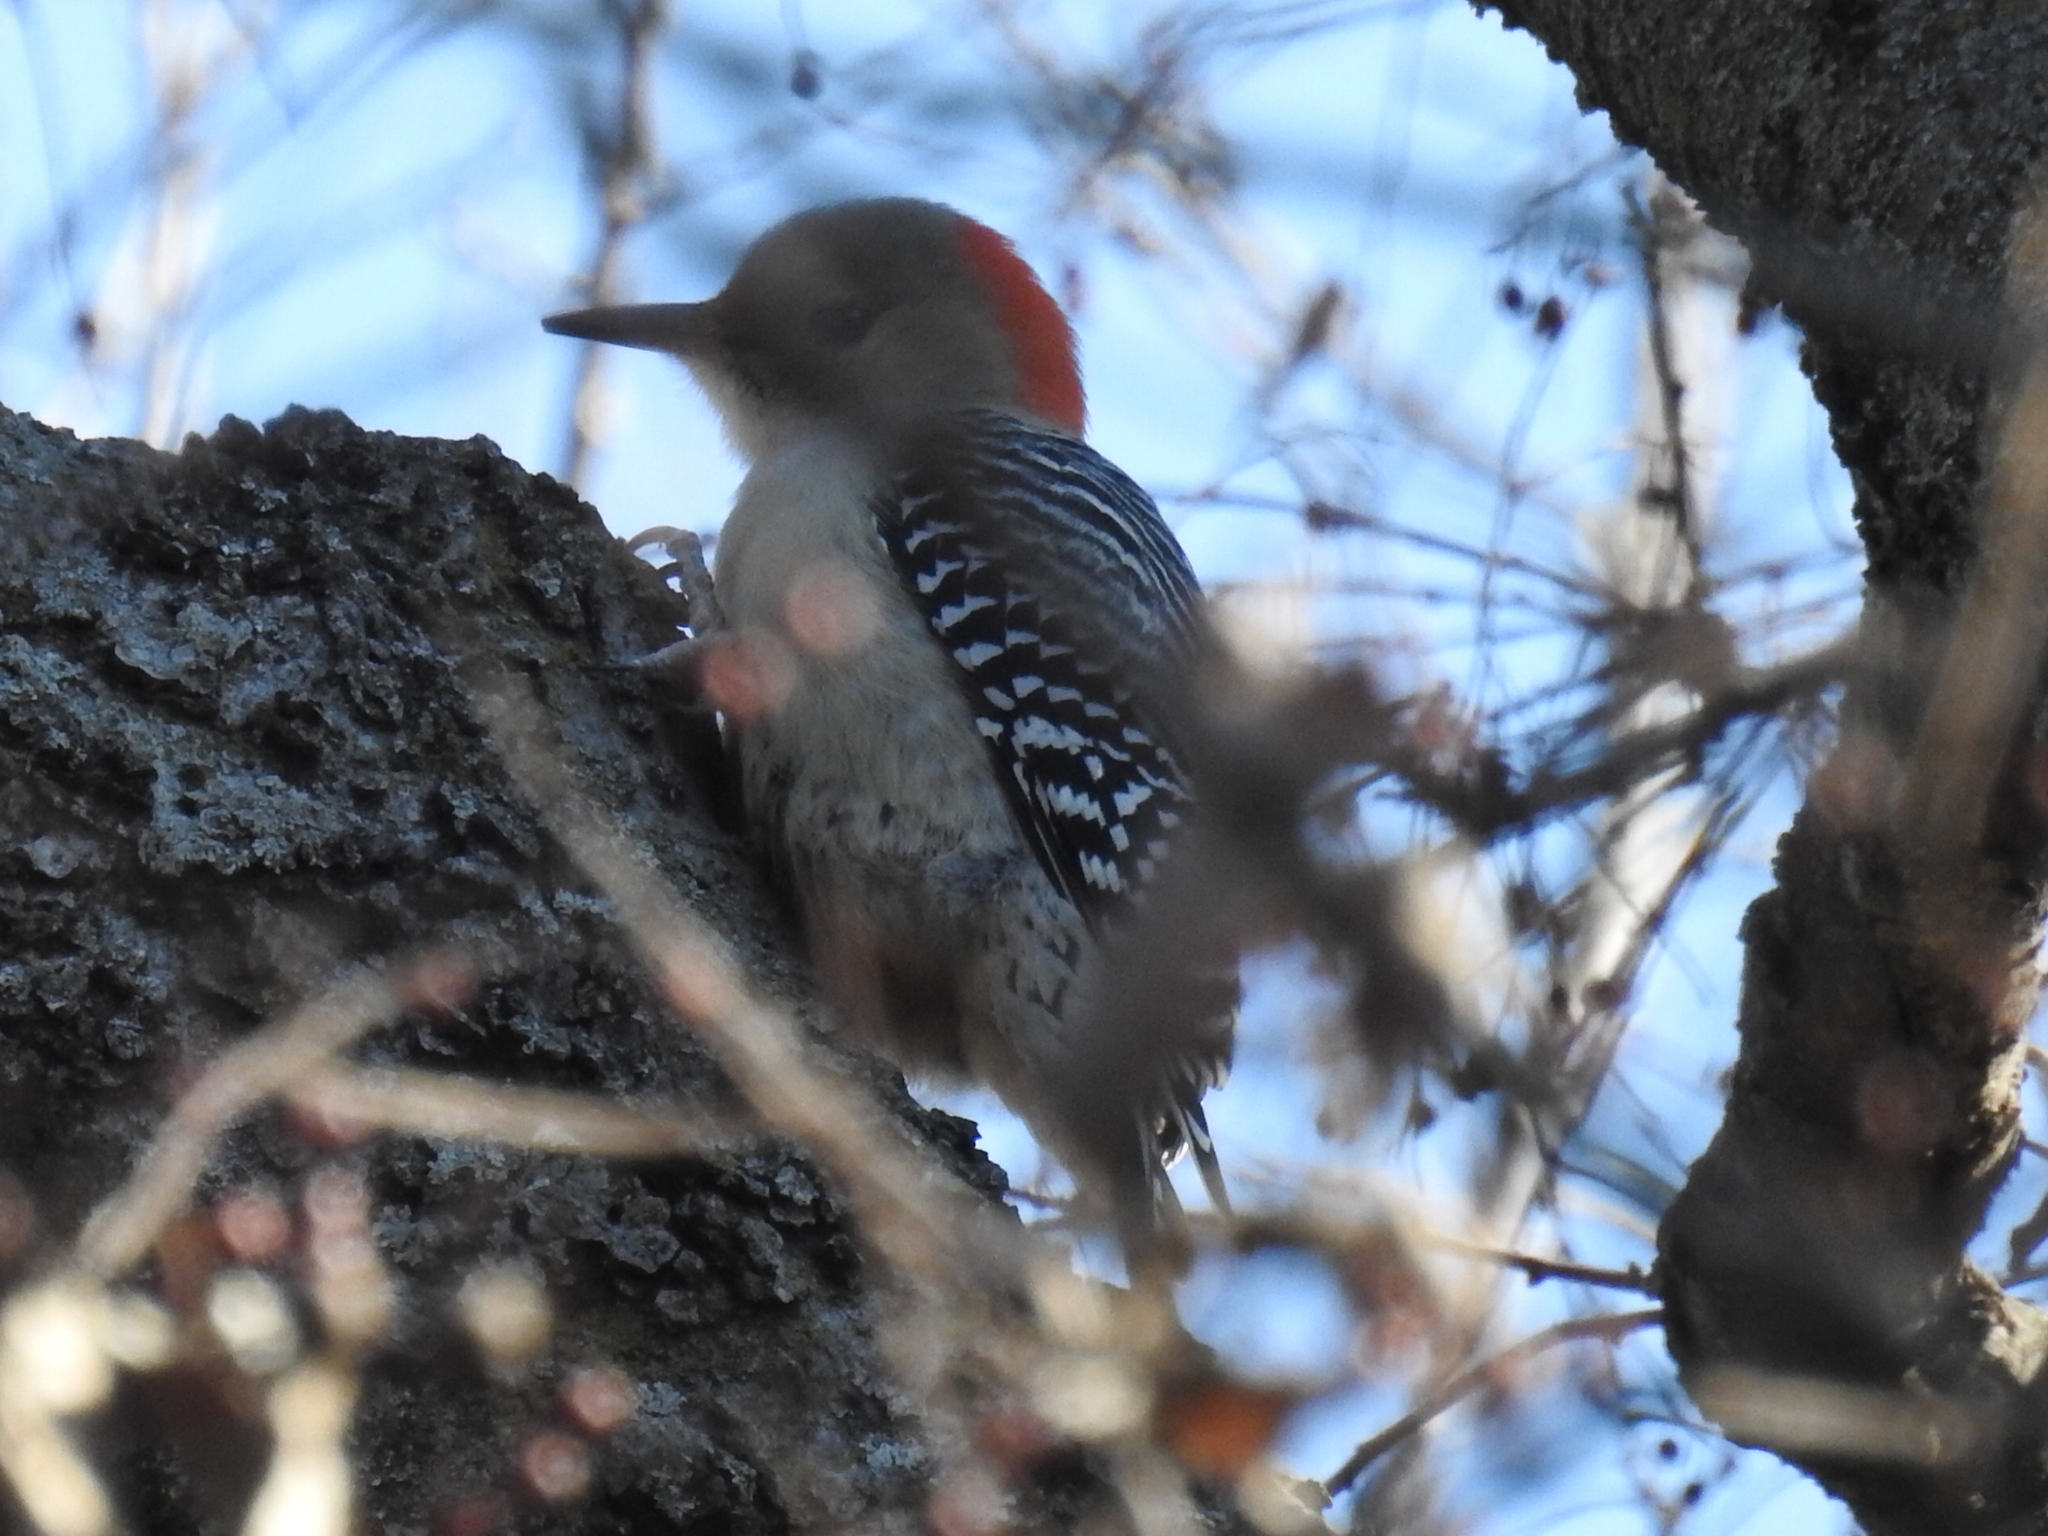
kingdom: Animalia
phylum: Chordata
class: Aves
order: Piciformes
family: Picidae
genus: Melanerpes
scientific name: Melanerpes carolinus
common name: Red-bellied woodpecker
